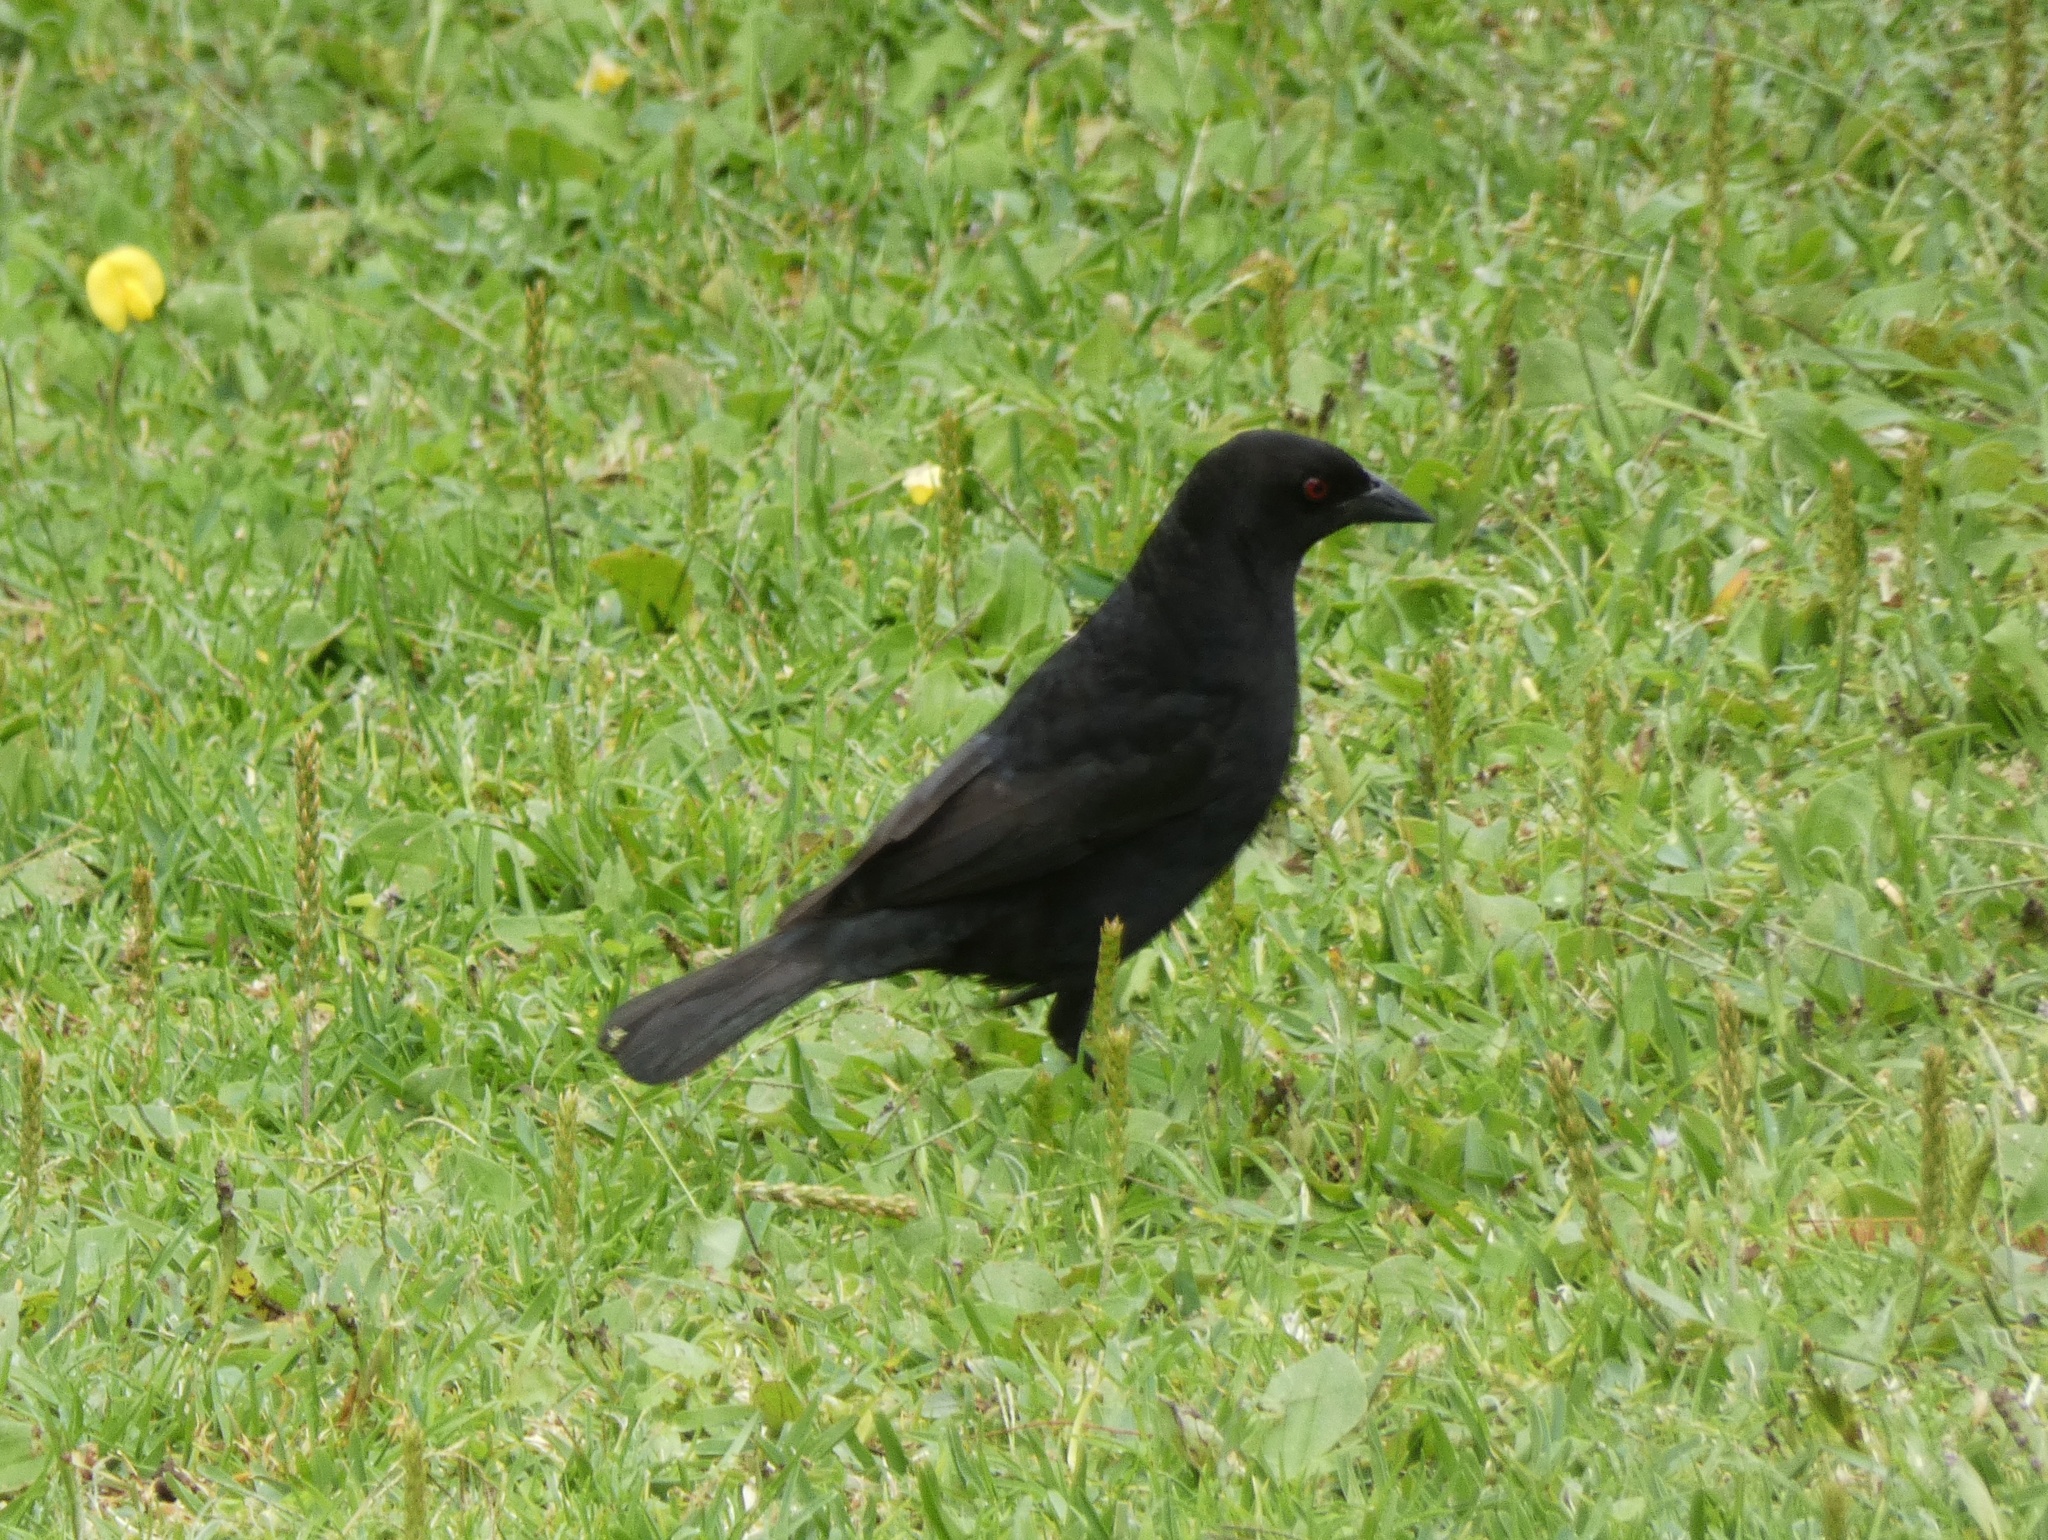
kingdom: Animalia
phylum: Chordata
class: Aves
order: Passeriformes
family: Icteridae
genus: Molothrus
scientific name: Molothrus aeneus
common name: Bronzed cowbird
